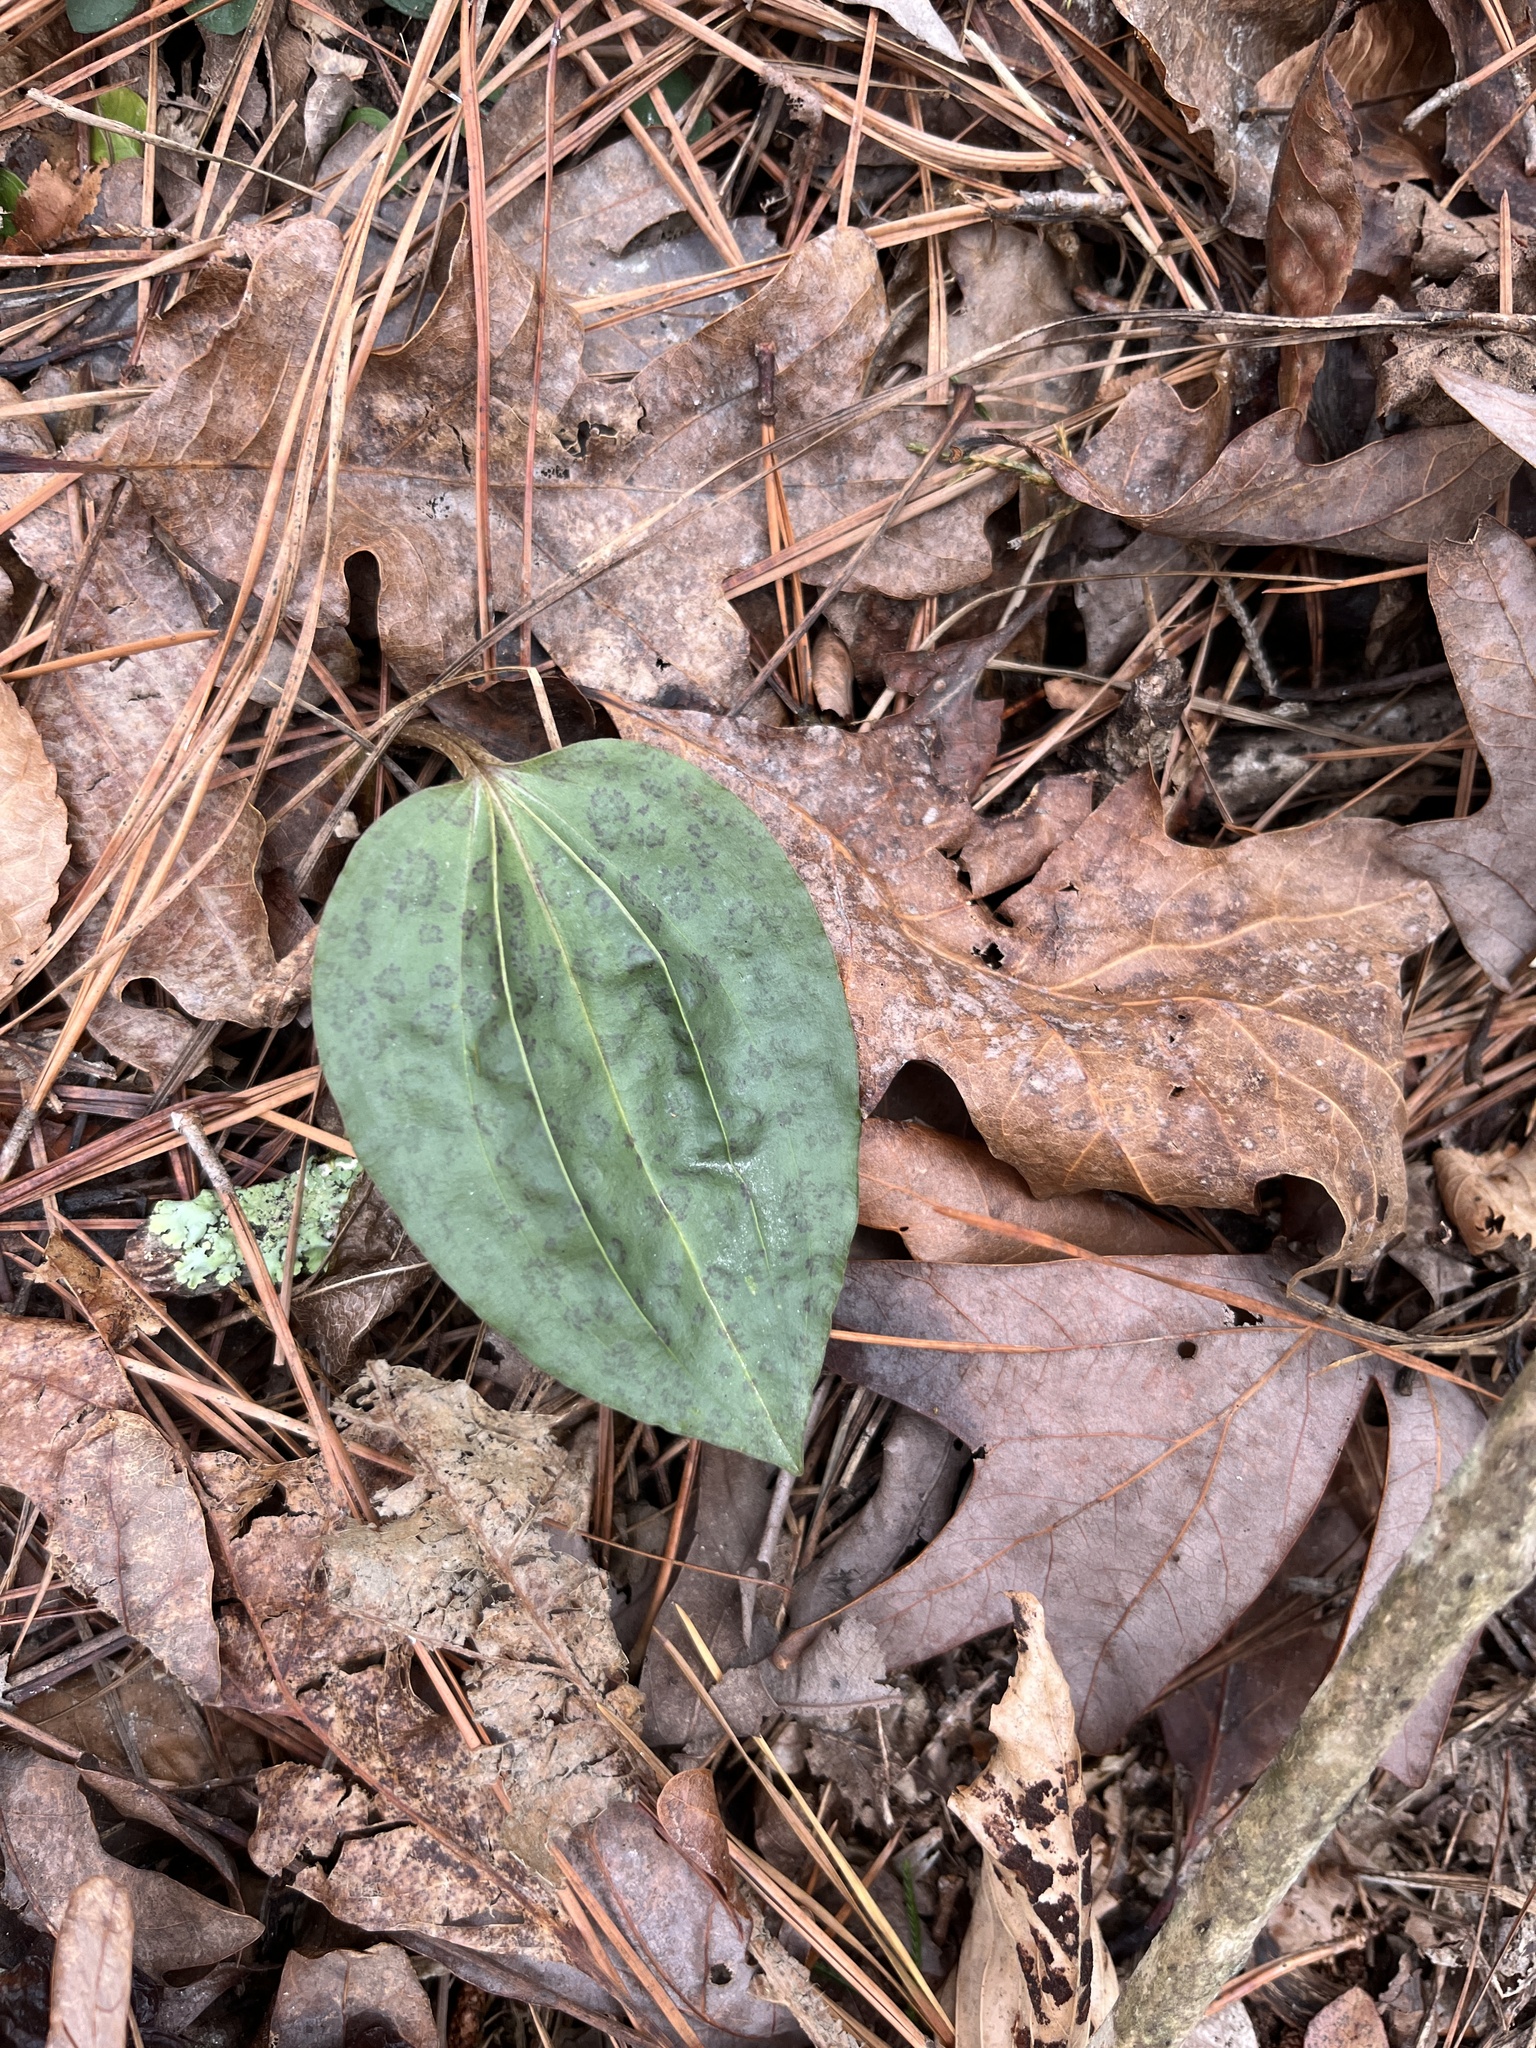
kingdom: Plantae
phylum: Tracheophyta
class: Liliopsida
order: Asparagales
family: Orchidaceae
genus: Tipularia
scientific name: Tipularia discolor
